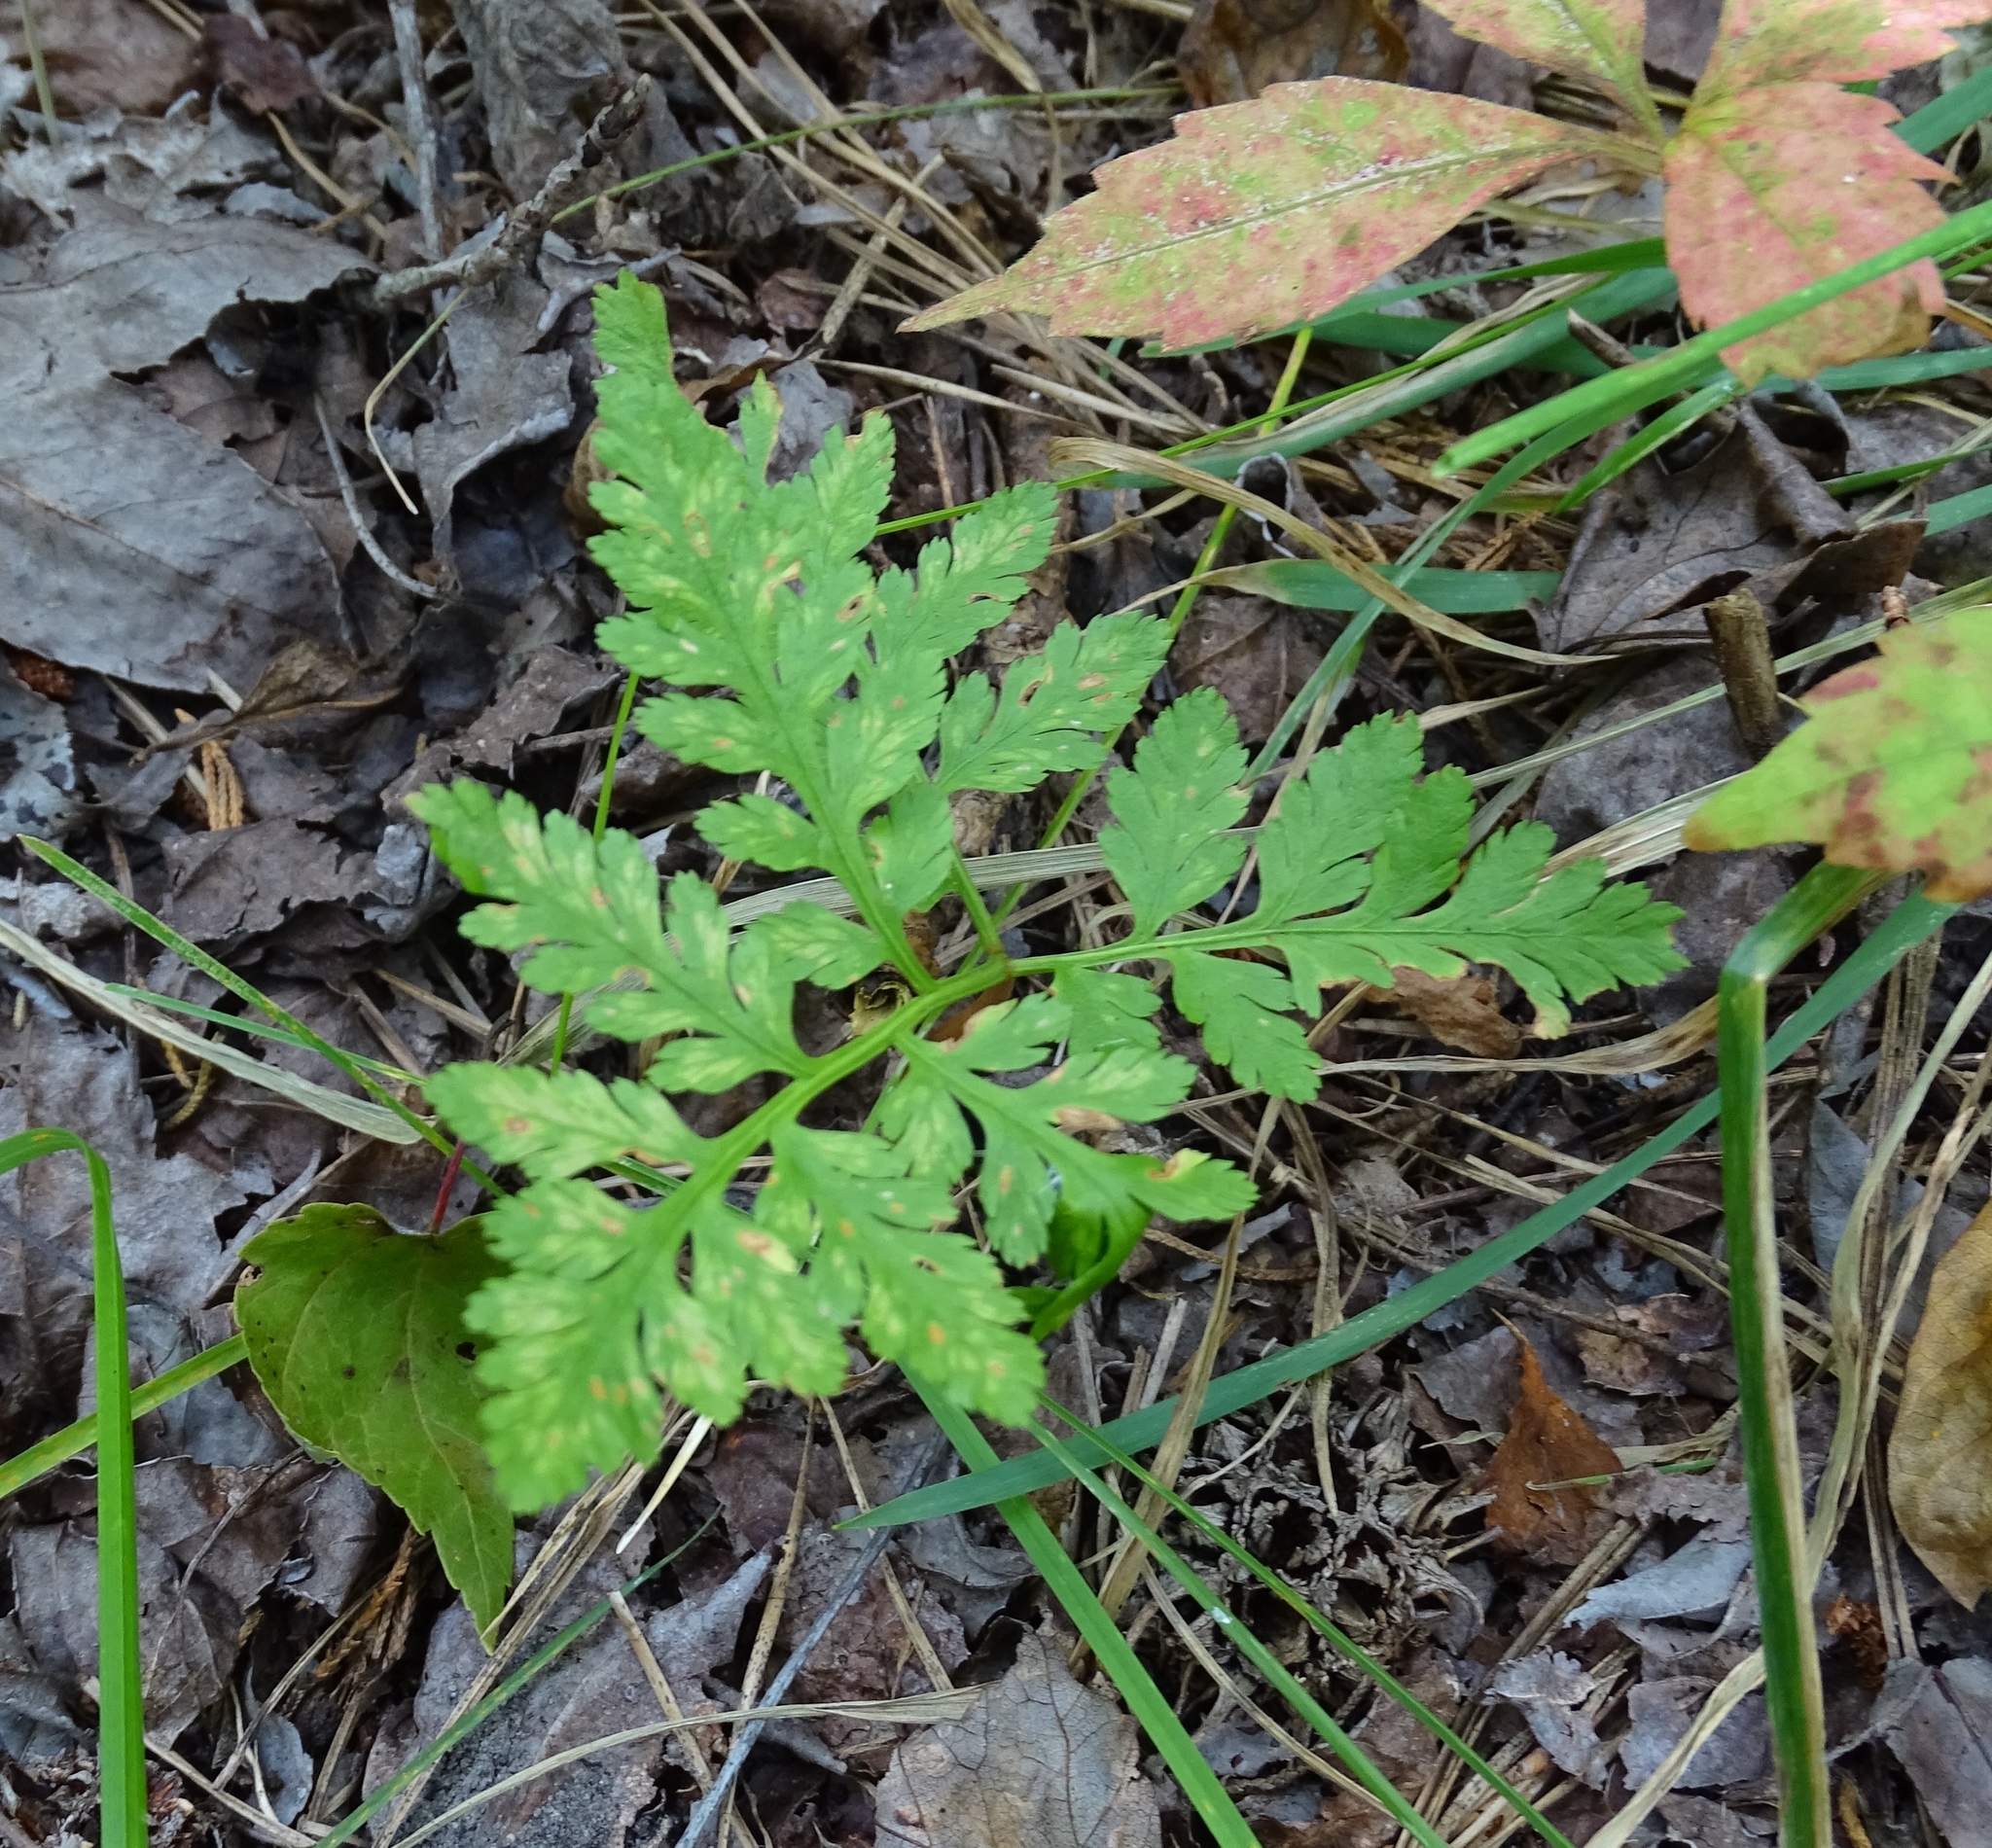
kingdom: Plantae
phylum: Tracheophyta
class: Polypodiopsida
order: Ophioglossales
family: Ophioglossaceae
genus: Botrypus
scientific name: Botrypus virginianus
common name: Common grapefern
